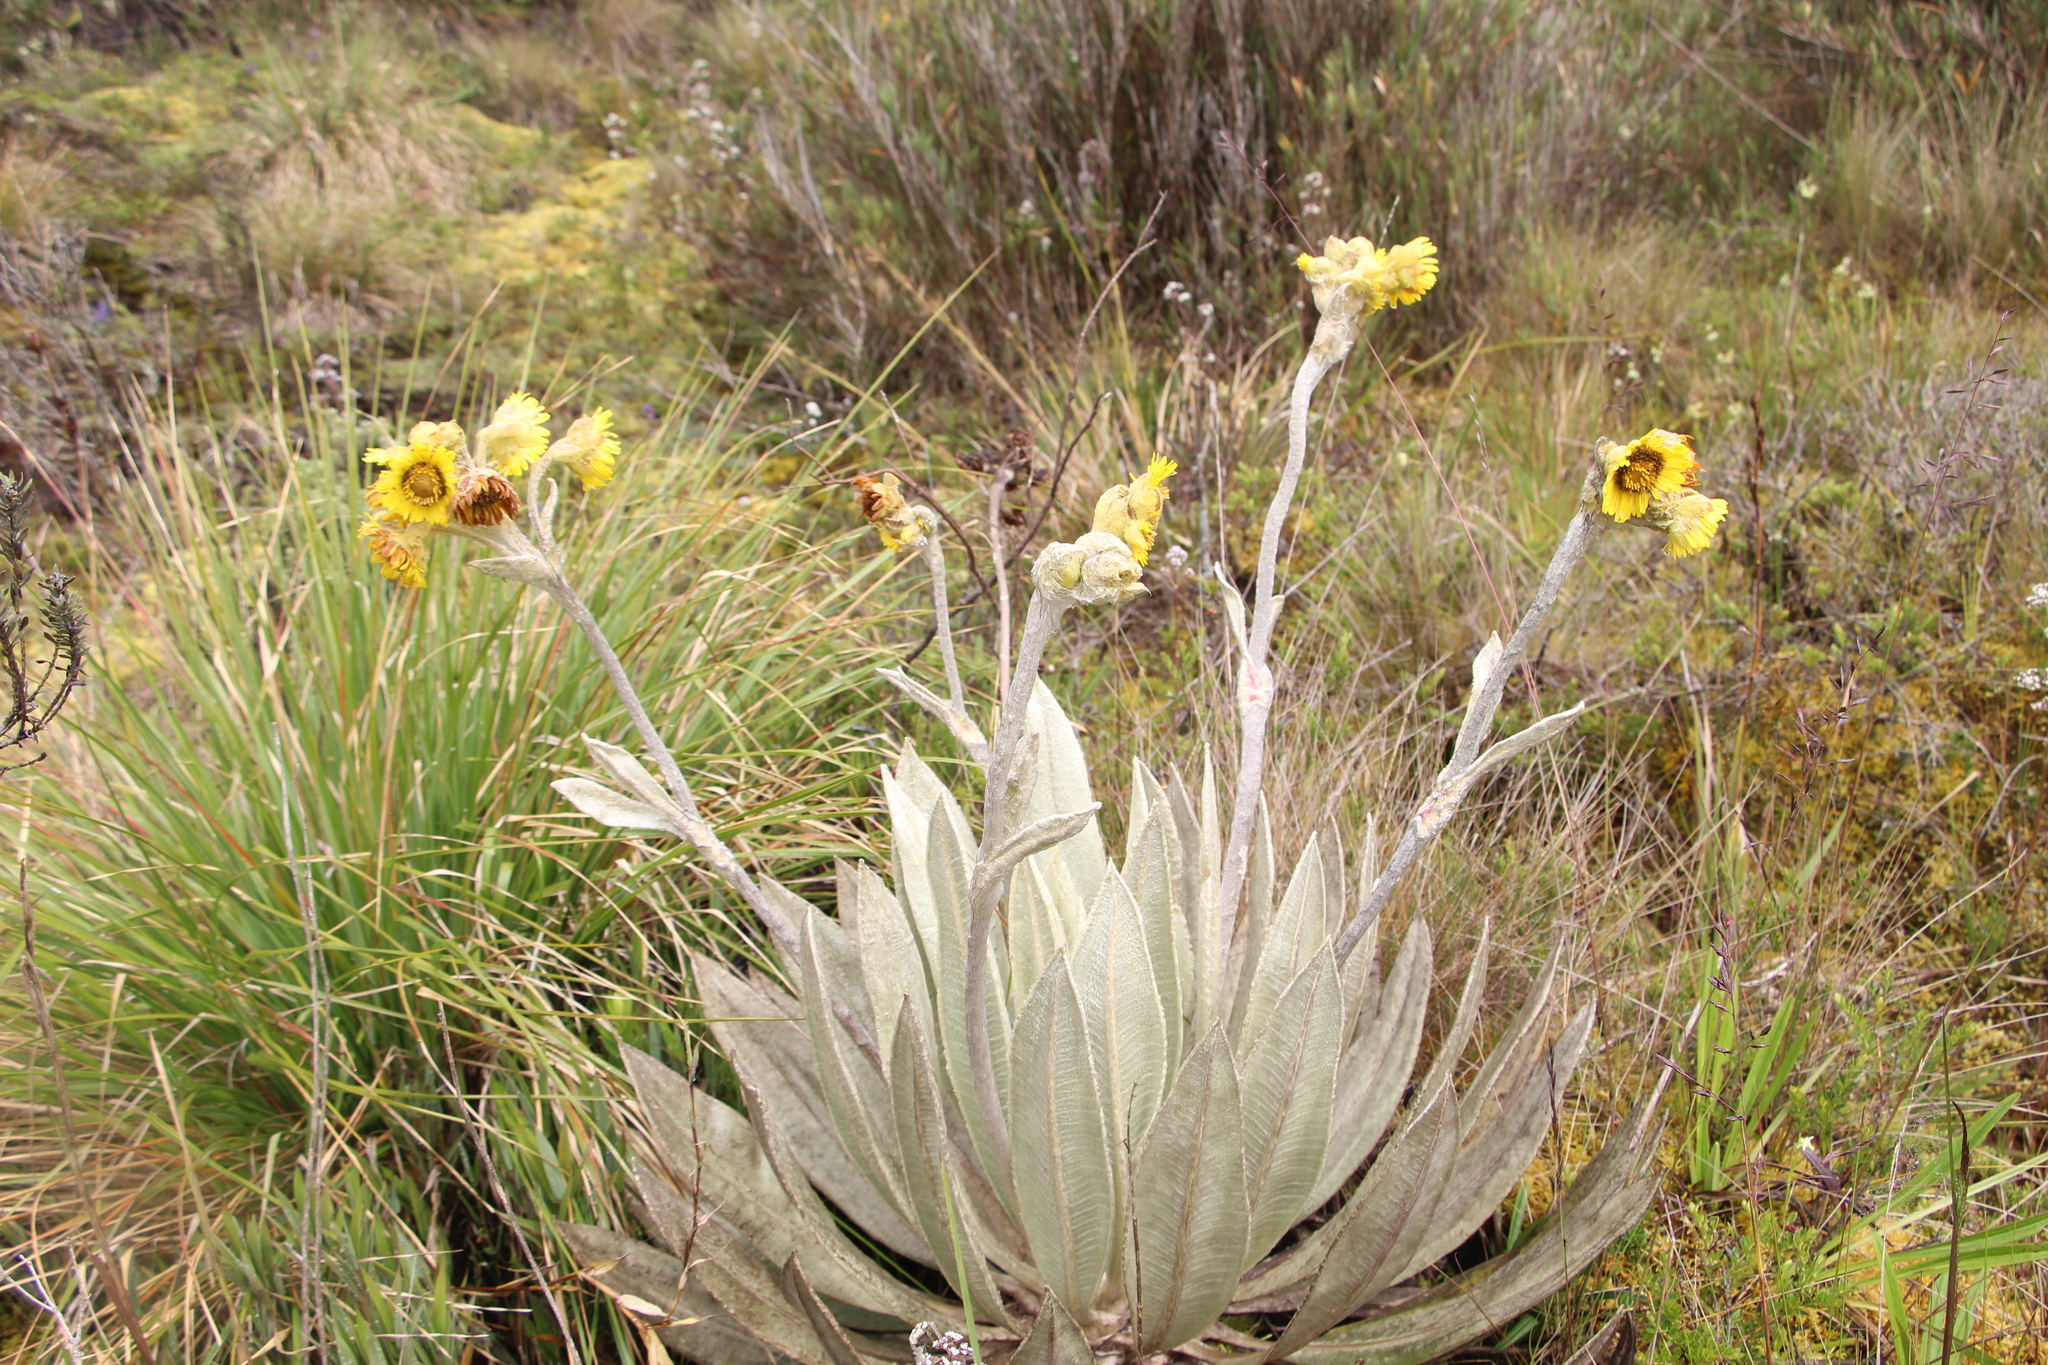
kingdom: Plantae
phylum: Tracheophyta
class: Magnoliopsida
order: Asterales
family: Asteraceae
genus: Espeletia
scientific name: Espeletia grandiflora
